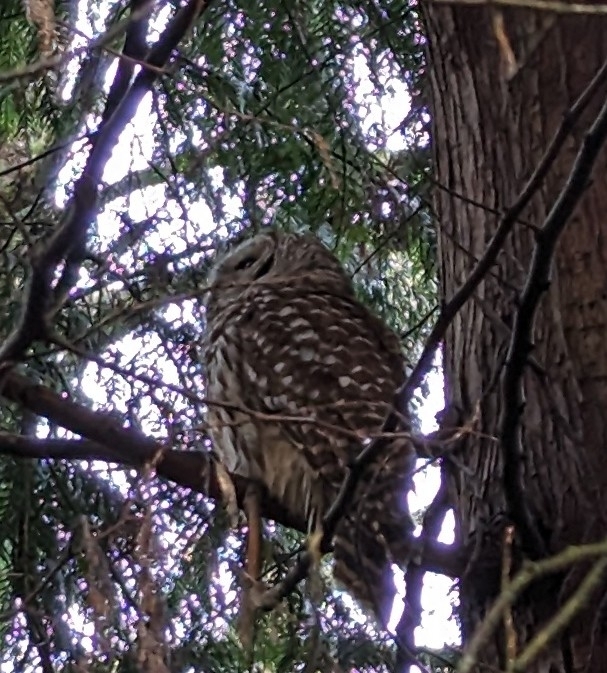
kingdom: Animalia
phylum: Chordata
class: Aves
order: Strigiformes
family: Strigidae
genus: Strix
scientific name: Strix varia
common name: Barred owl
